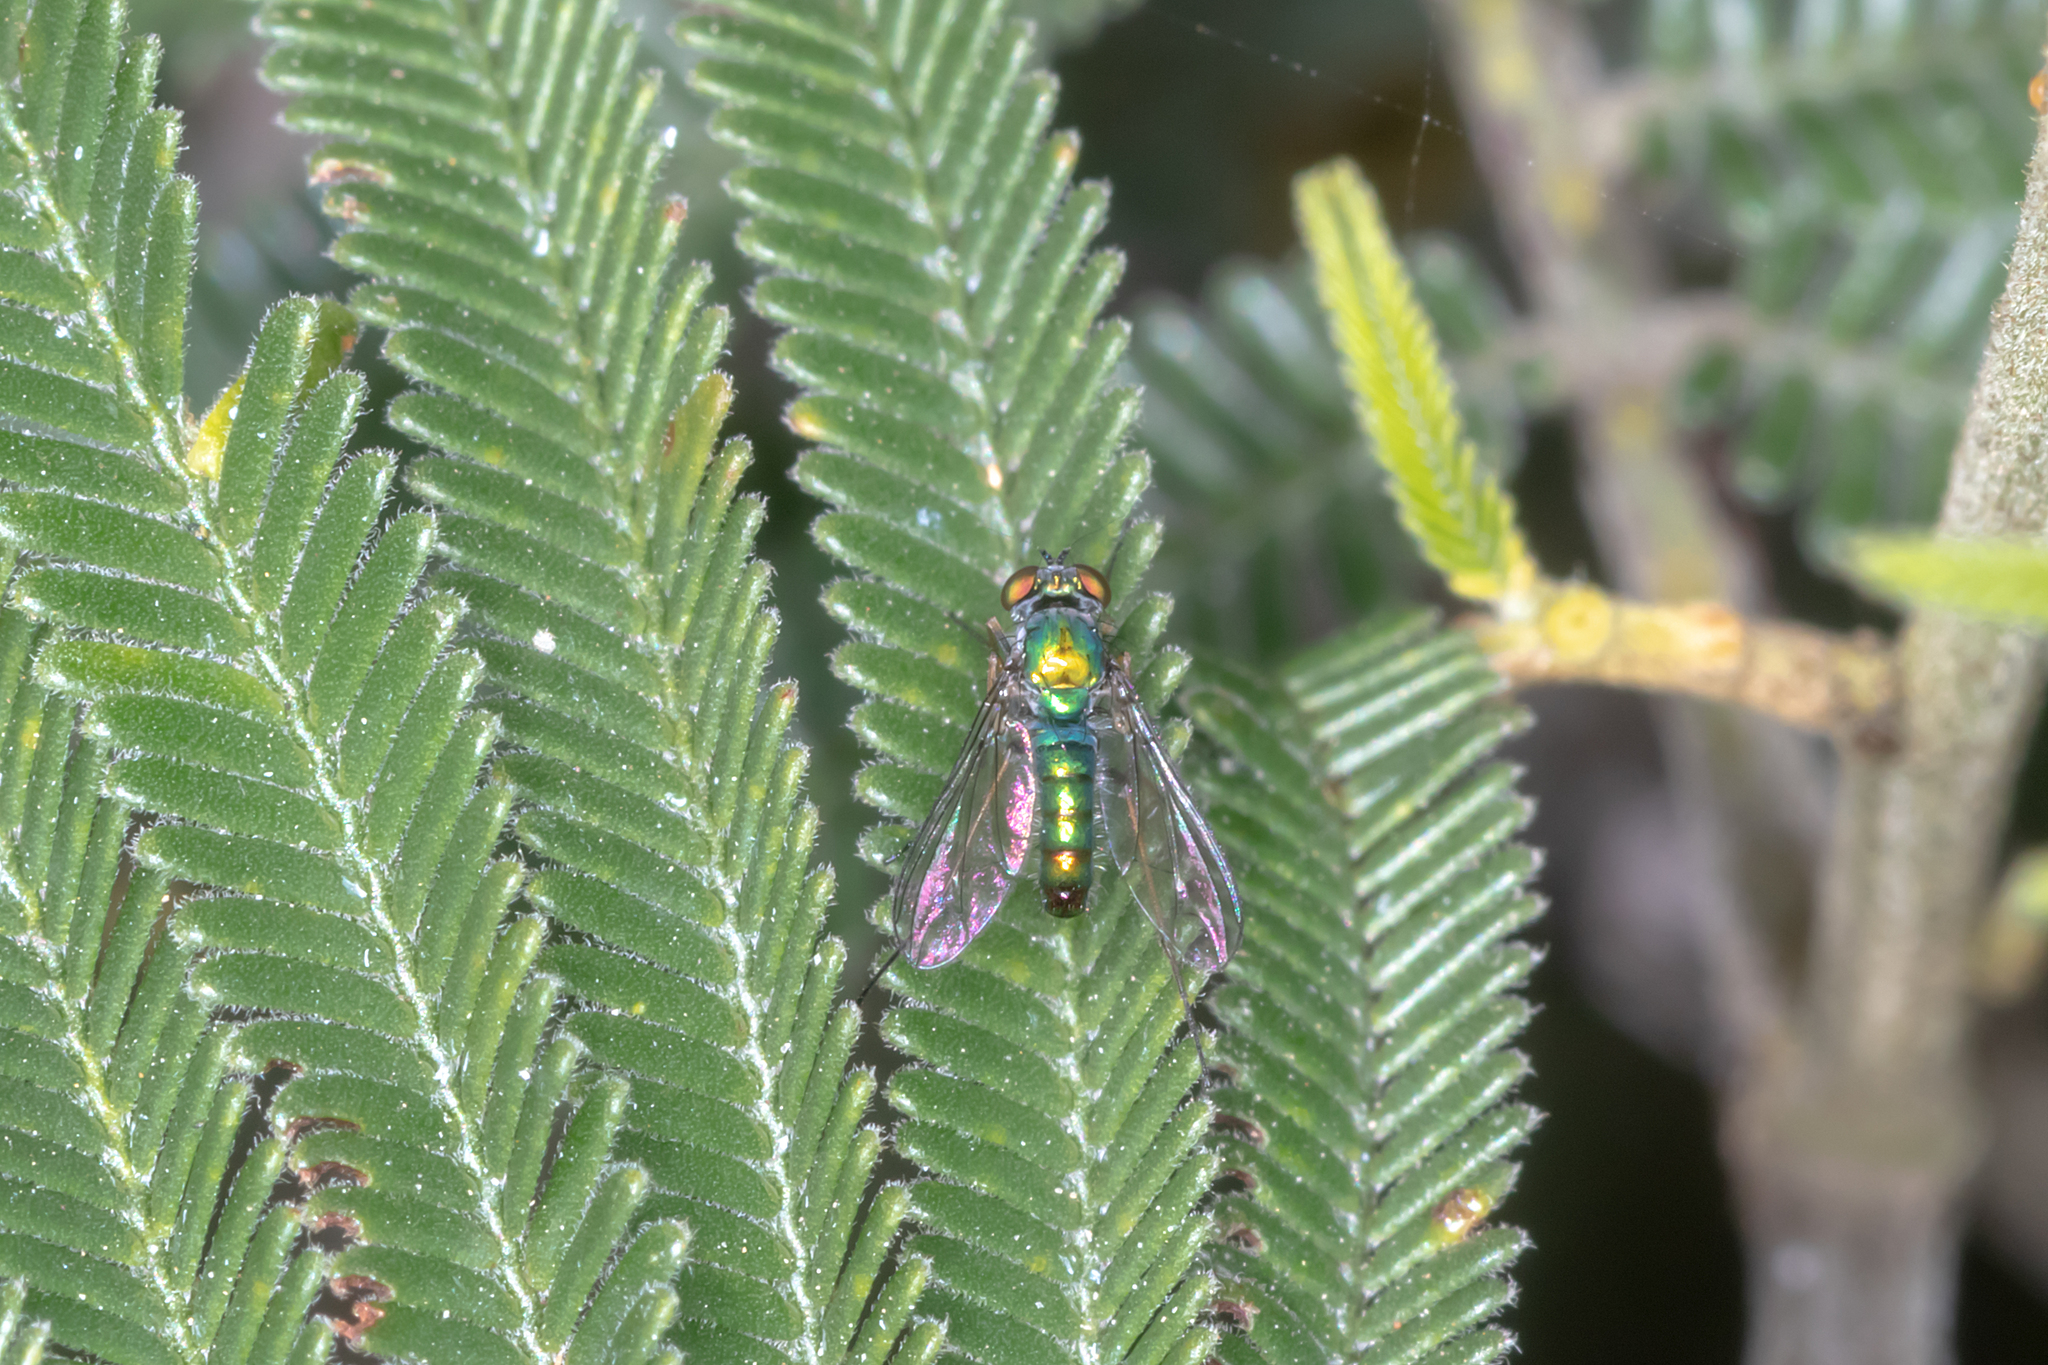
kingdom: Animalia
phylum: Arthropoda
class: Insecta
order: Diptera
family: Dolichopodidae
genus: Austrosciapus
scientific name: Austrosciapus tumidus
